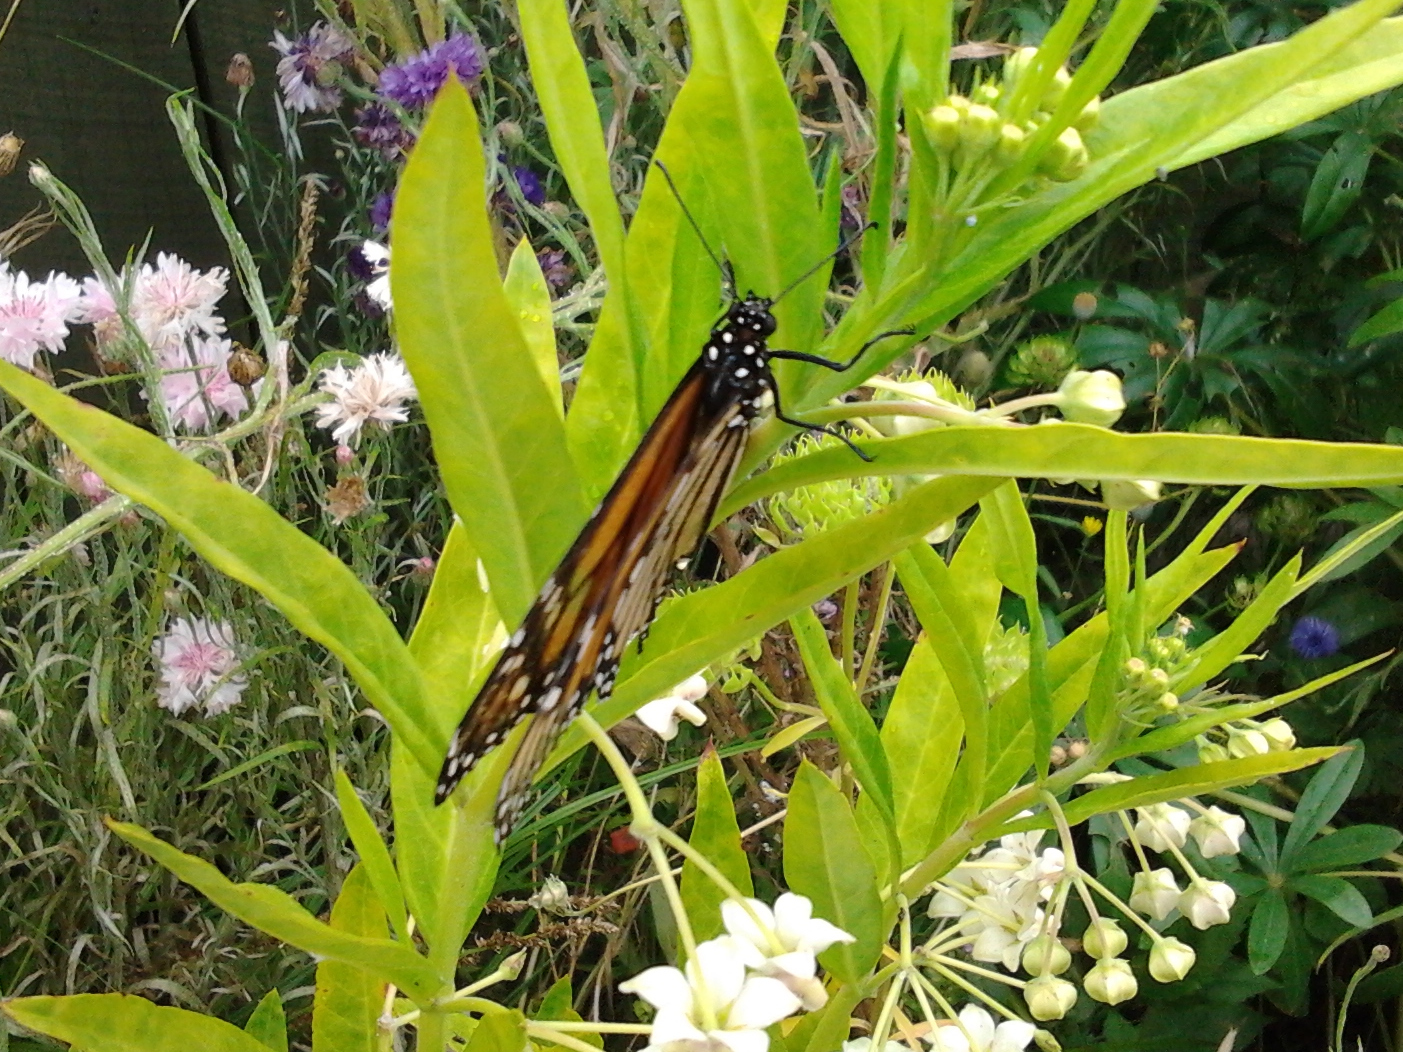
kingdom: Animalia
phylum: Arthropoda
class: Insecta
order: Lepidoptera
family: Nymphalidae
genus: Danaus
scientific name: Danaus plexippus
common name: Monarch
